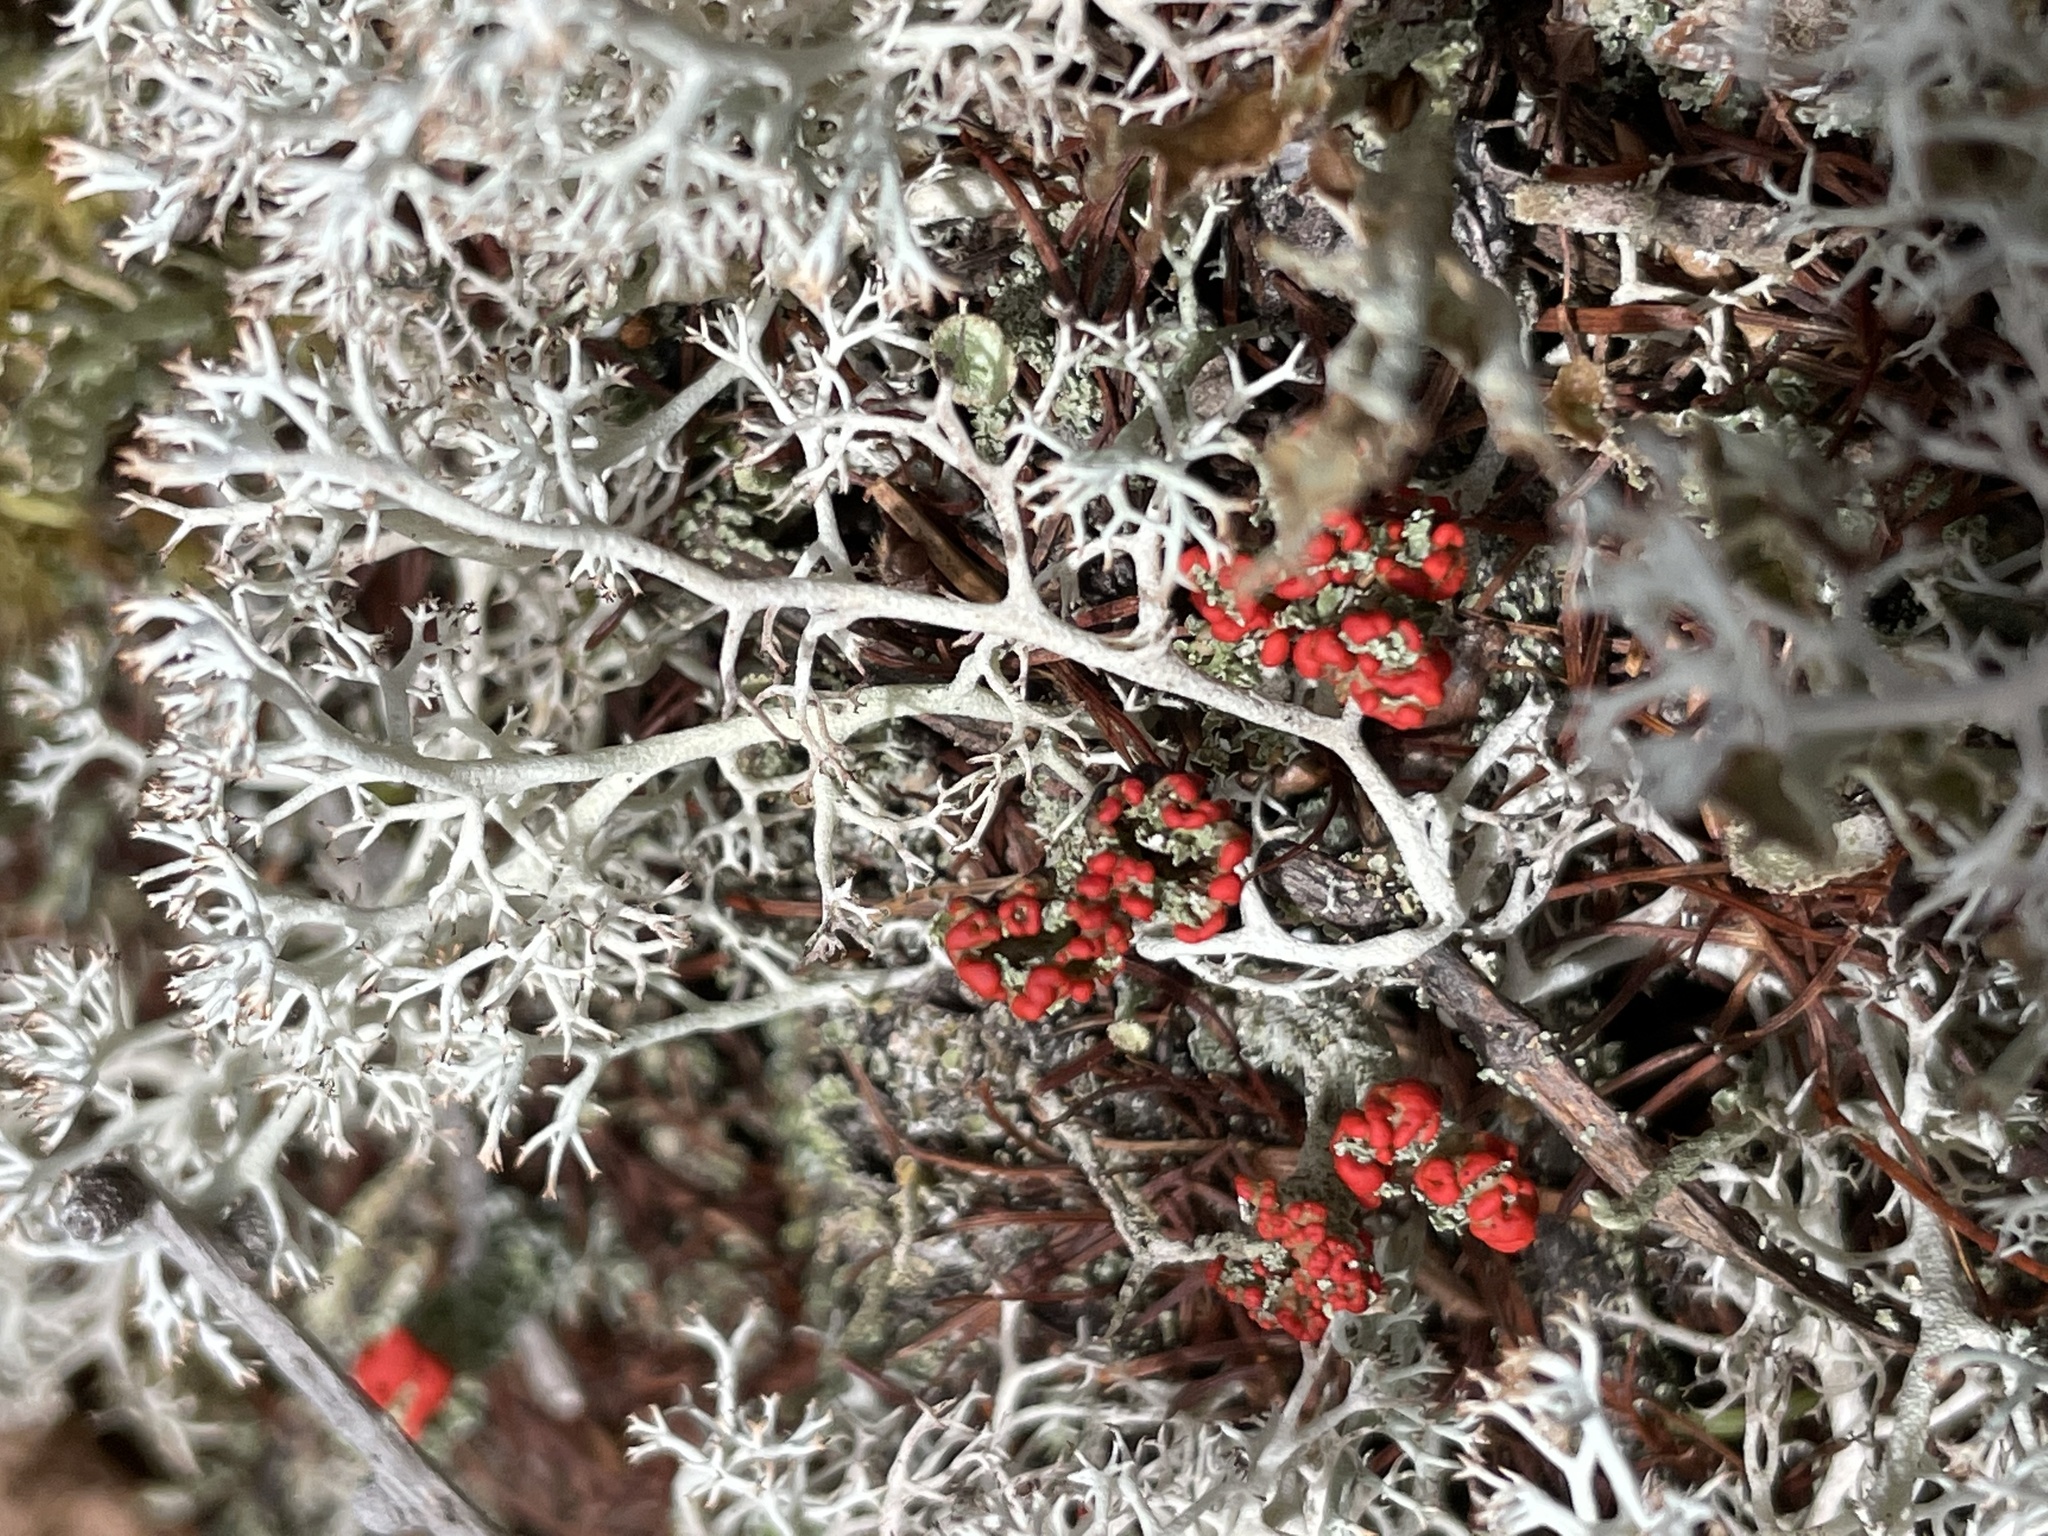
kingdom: Fungi
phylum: Ascomycota
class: Lecanoromycetes
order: Lecanorales
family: Cladoniaceae
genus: Cladonia
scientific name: Cladonia cristatella
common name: British soldier lichen
